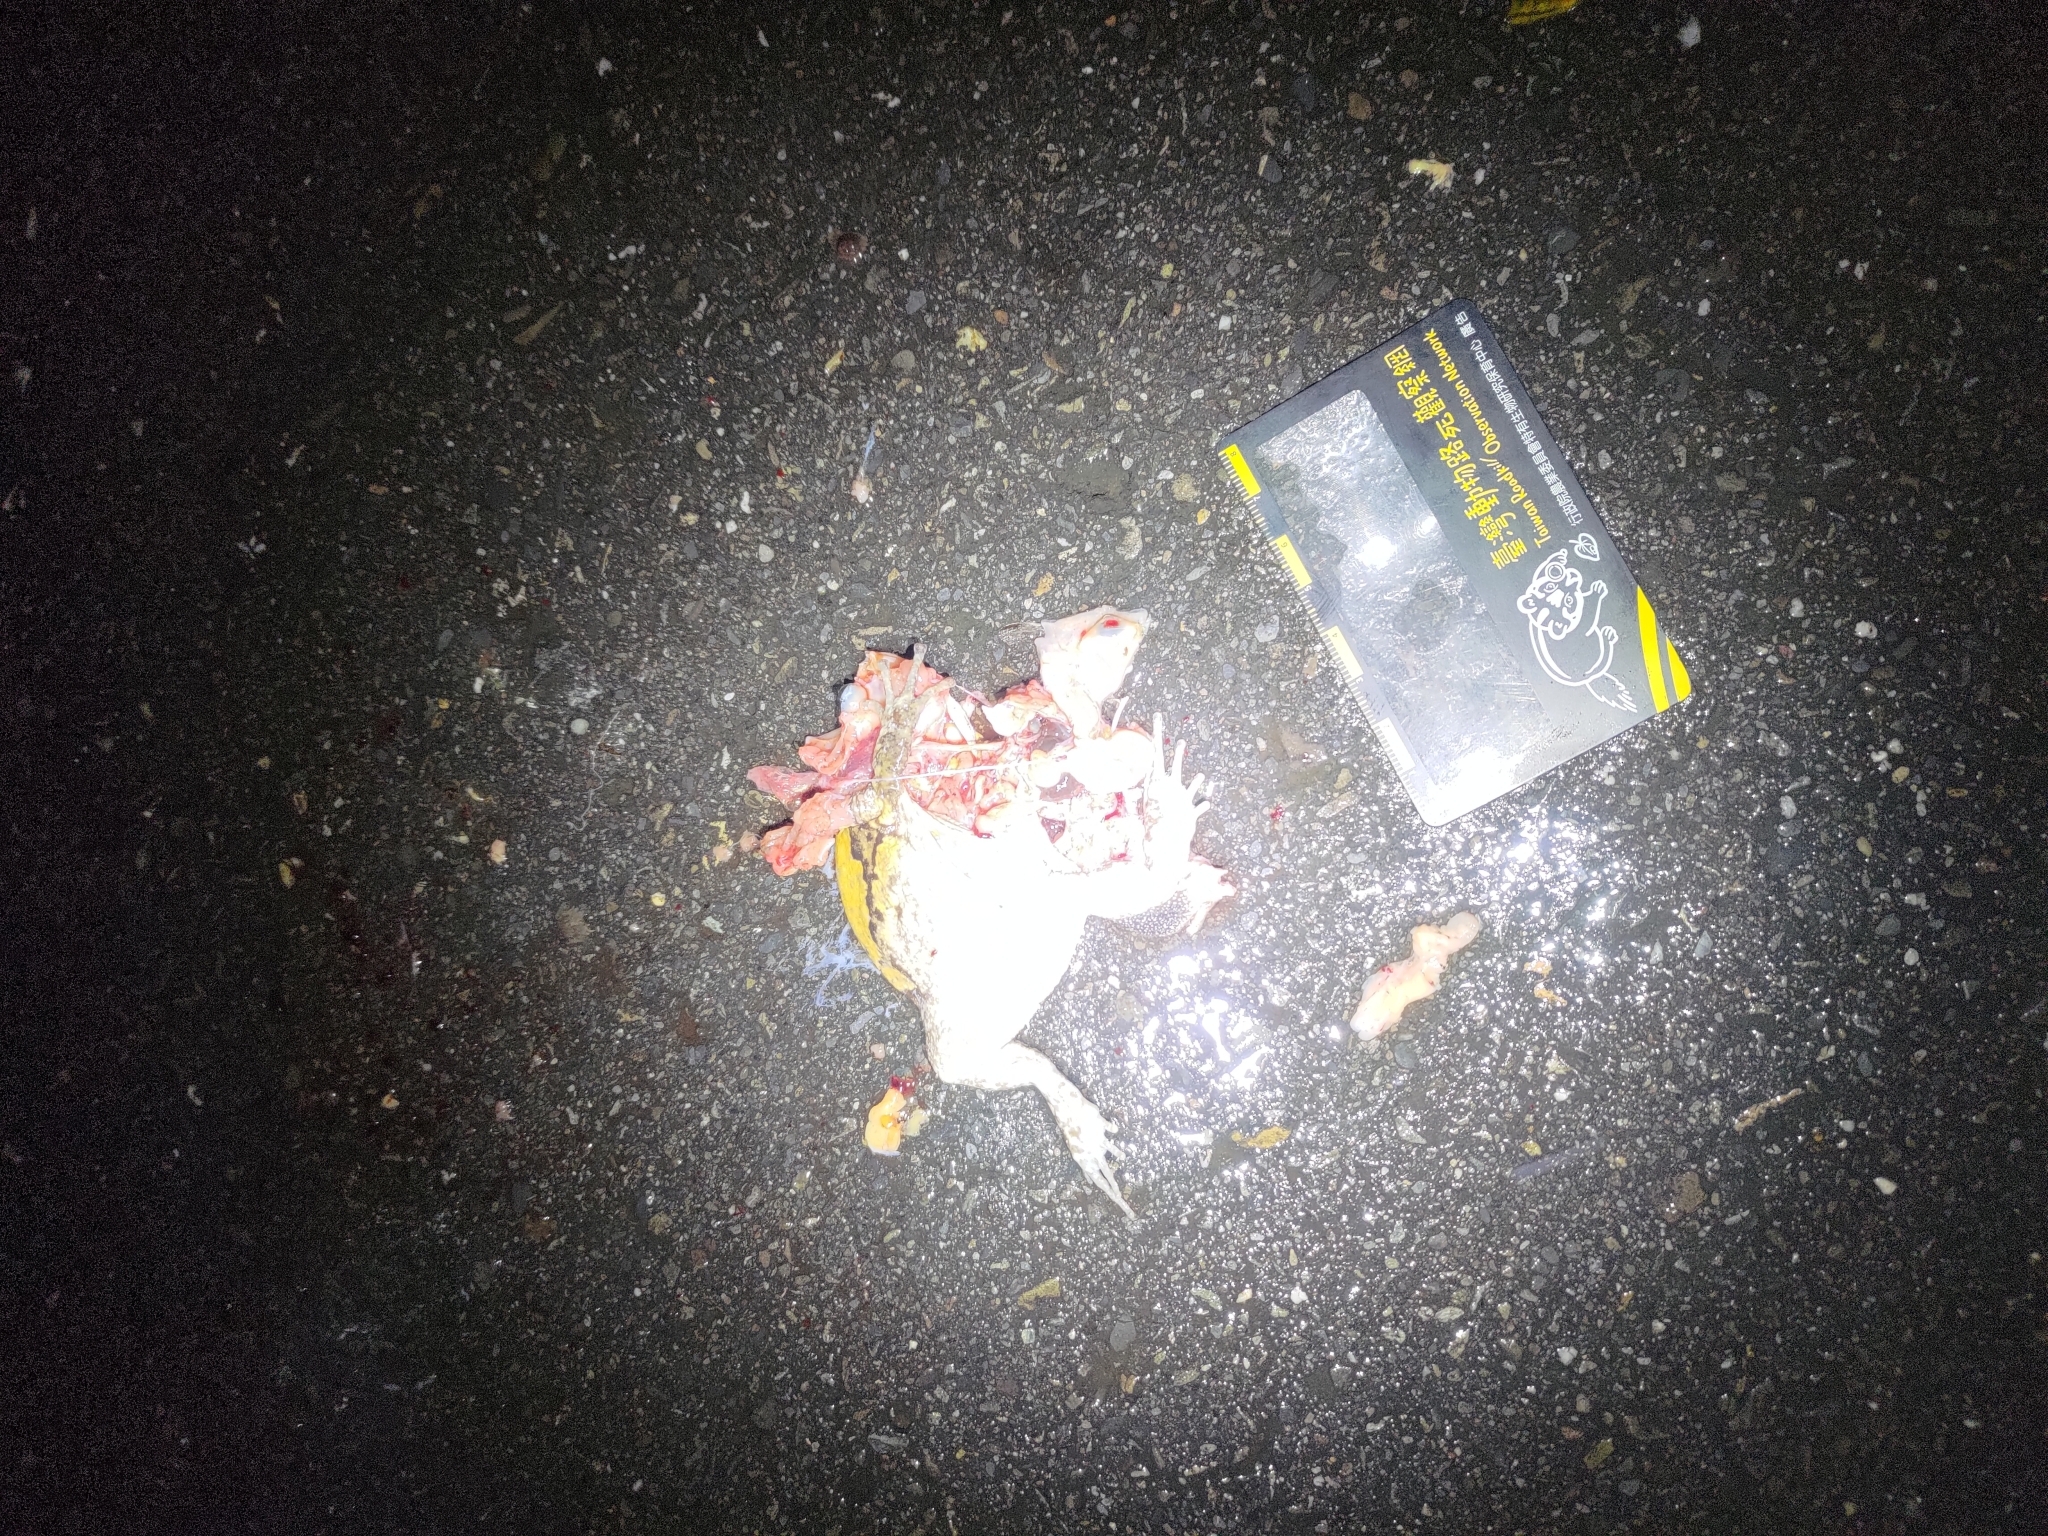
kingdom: Animalia
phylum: Chordata
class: Amphibia
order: Anura
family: Microhylidae
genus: Kaloula
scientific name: Kaloula pulchra
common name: Common,banded bullfrog
